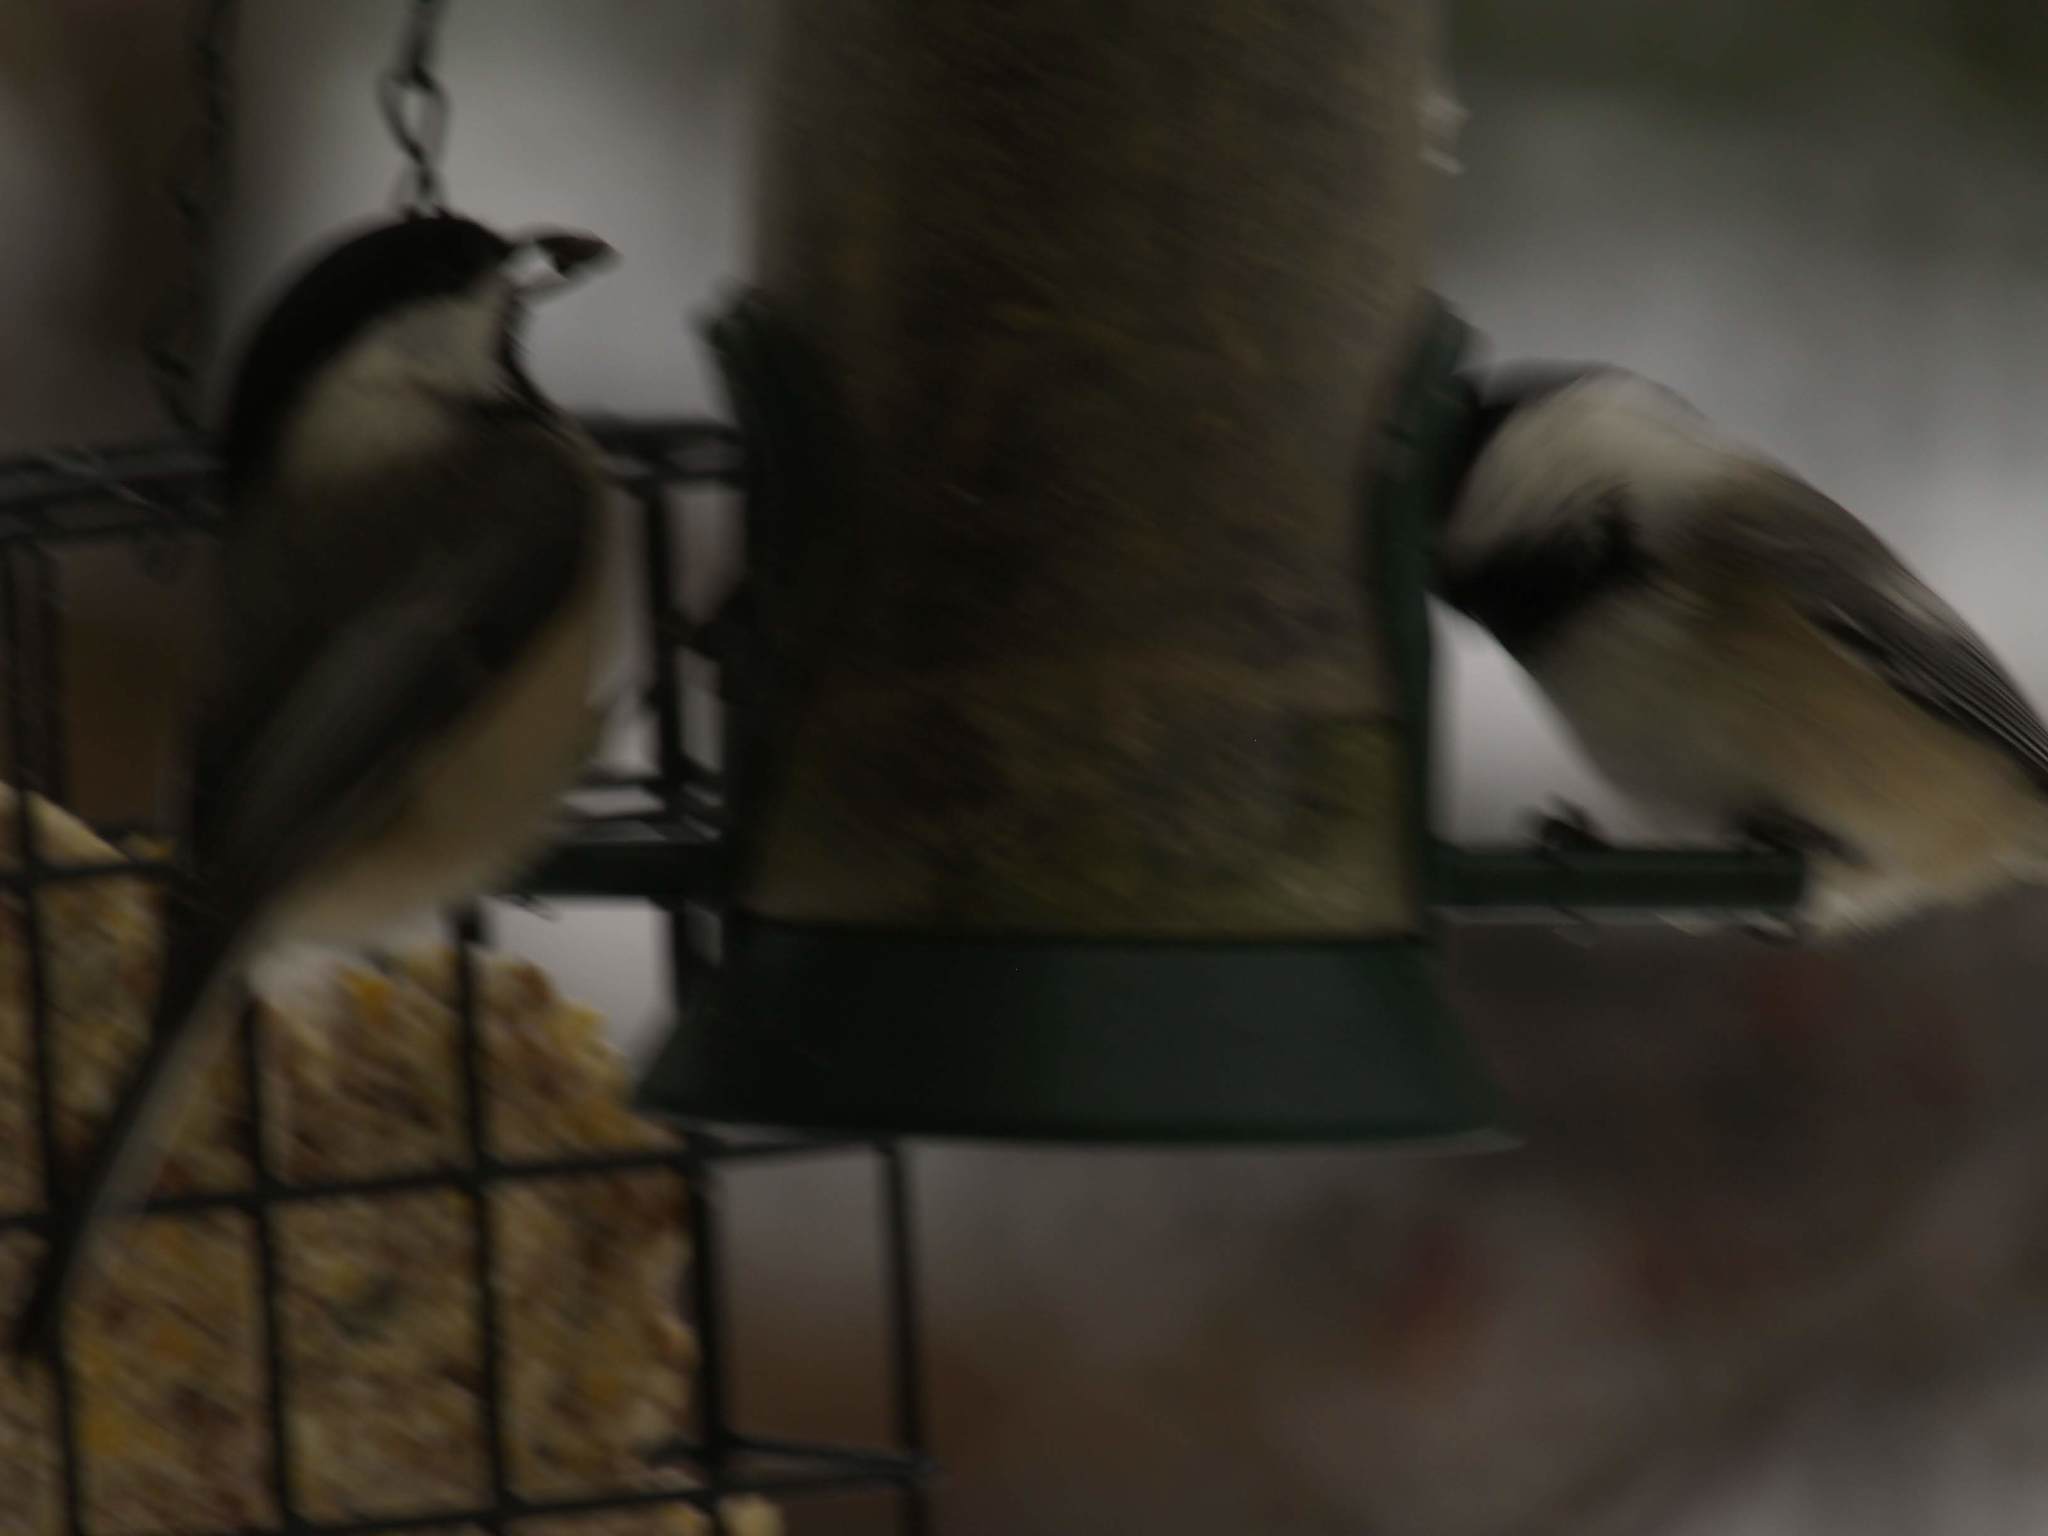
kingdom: Animalia
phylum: Chordata
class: Aves
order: Passeriformes
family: Paridae
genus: Poecile
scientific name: Poecile atricapillus
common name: Black-capped chickadee
